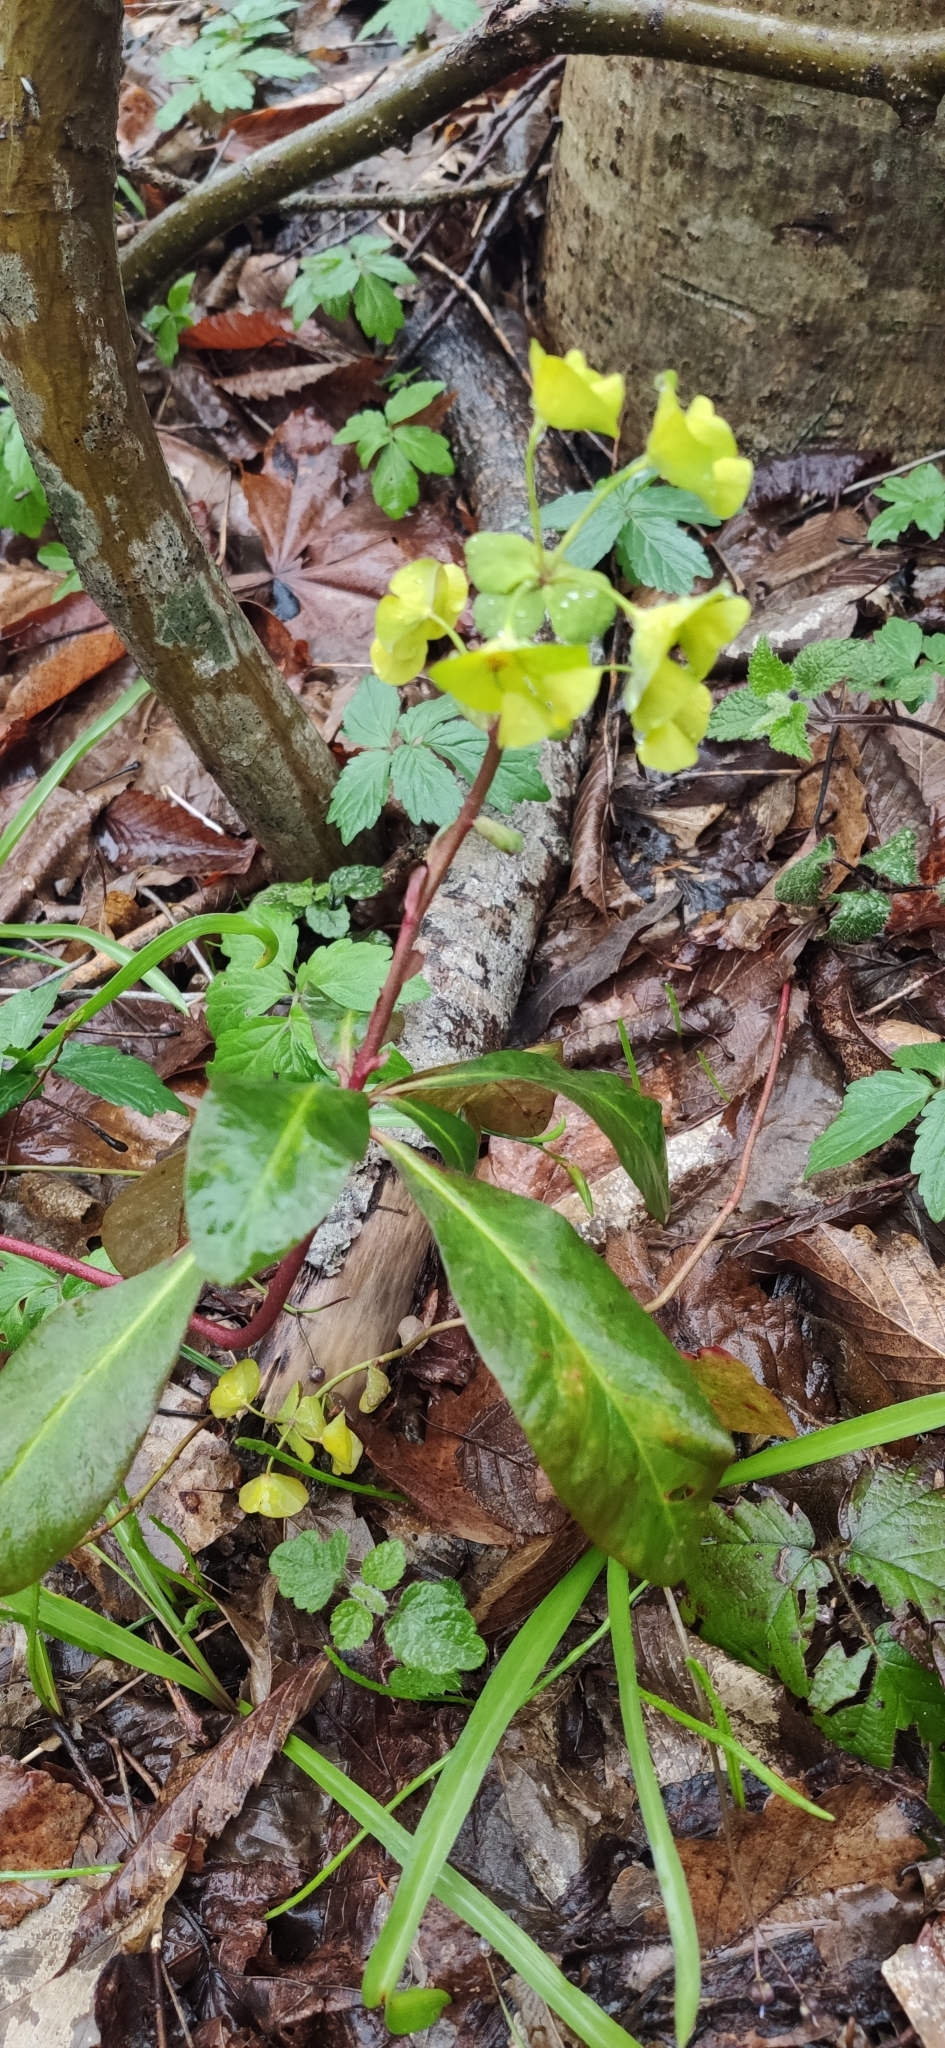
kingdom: Plantae
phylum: Tracheophyta
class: Magnoliopsida
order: Malpighiales
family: Euphorbiaceae
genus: Euphorbia
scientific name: Euphorbia amygdaloides
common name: Wood spurge
